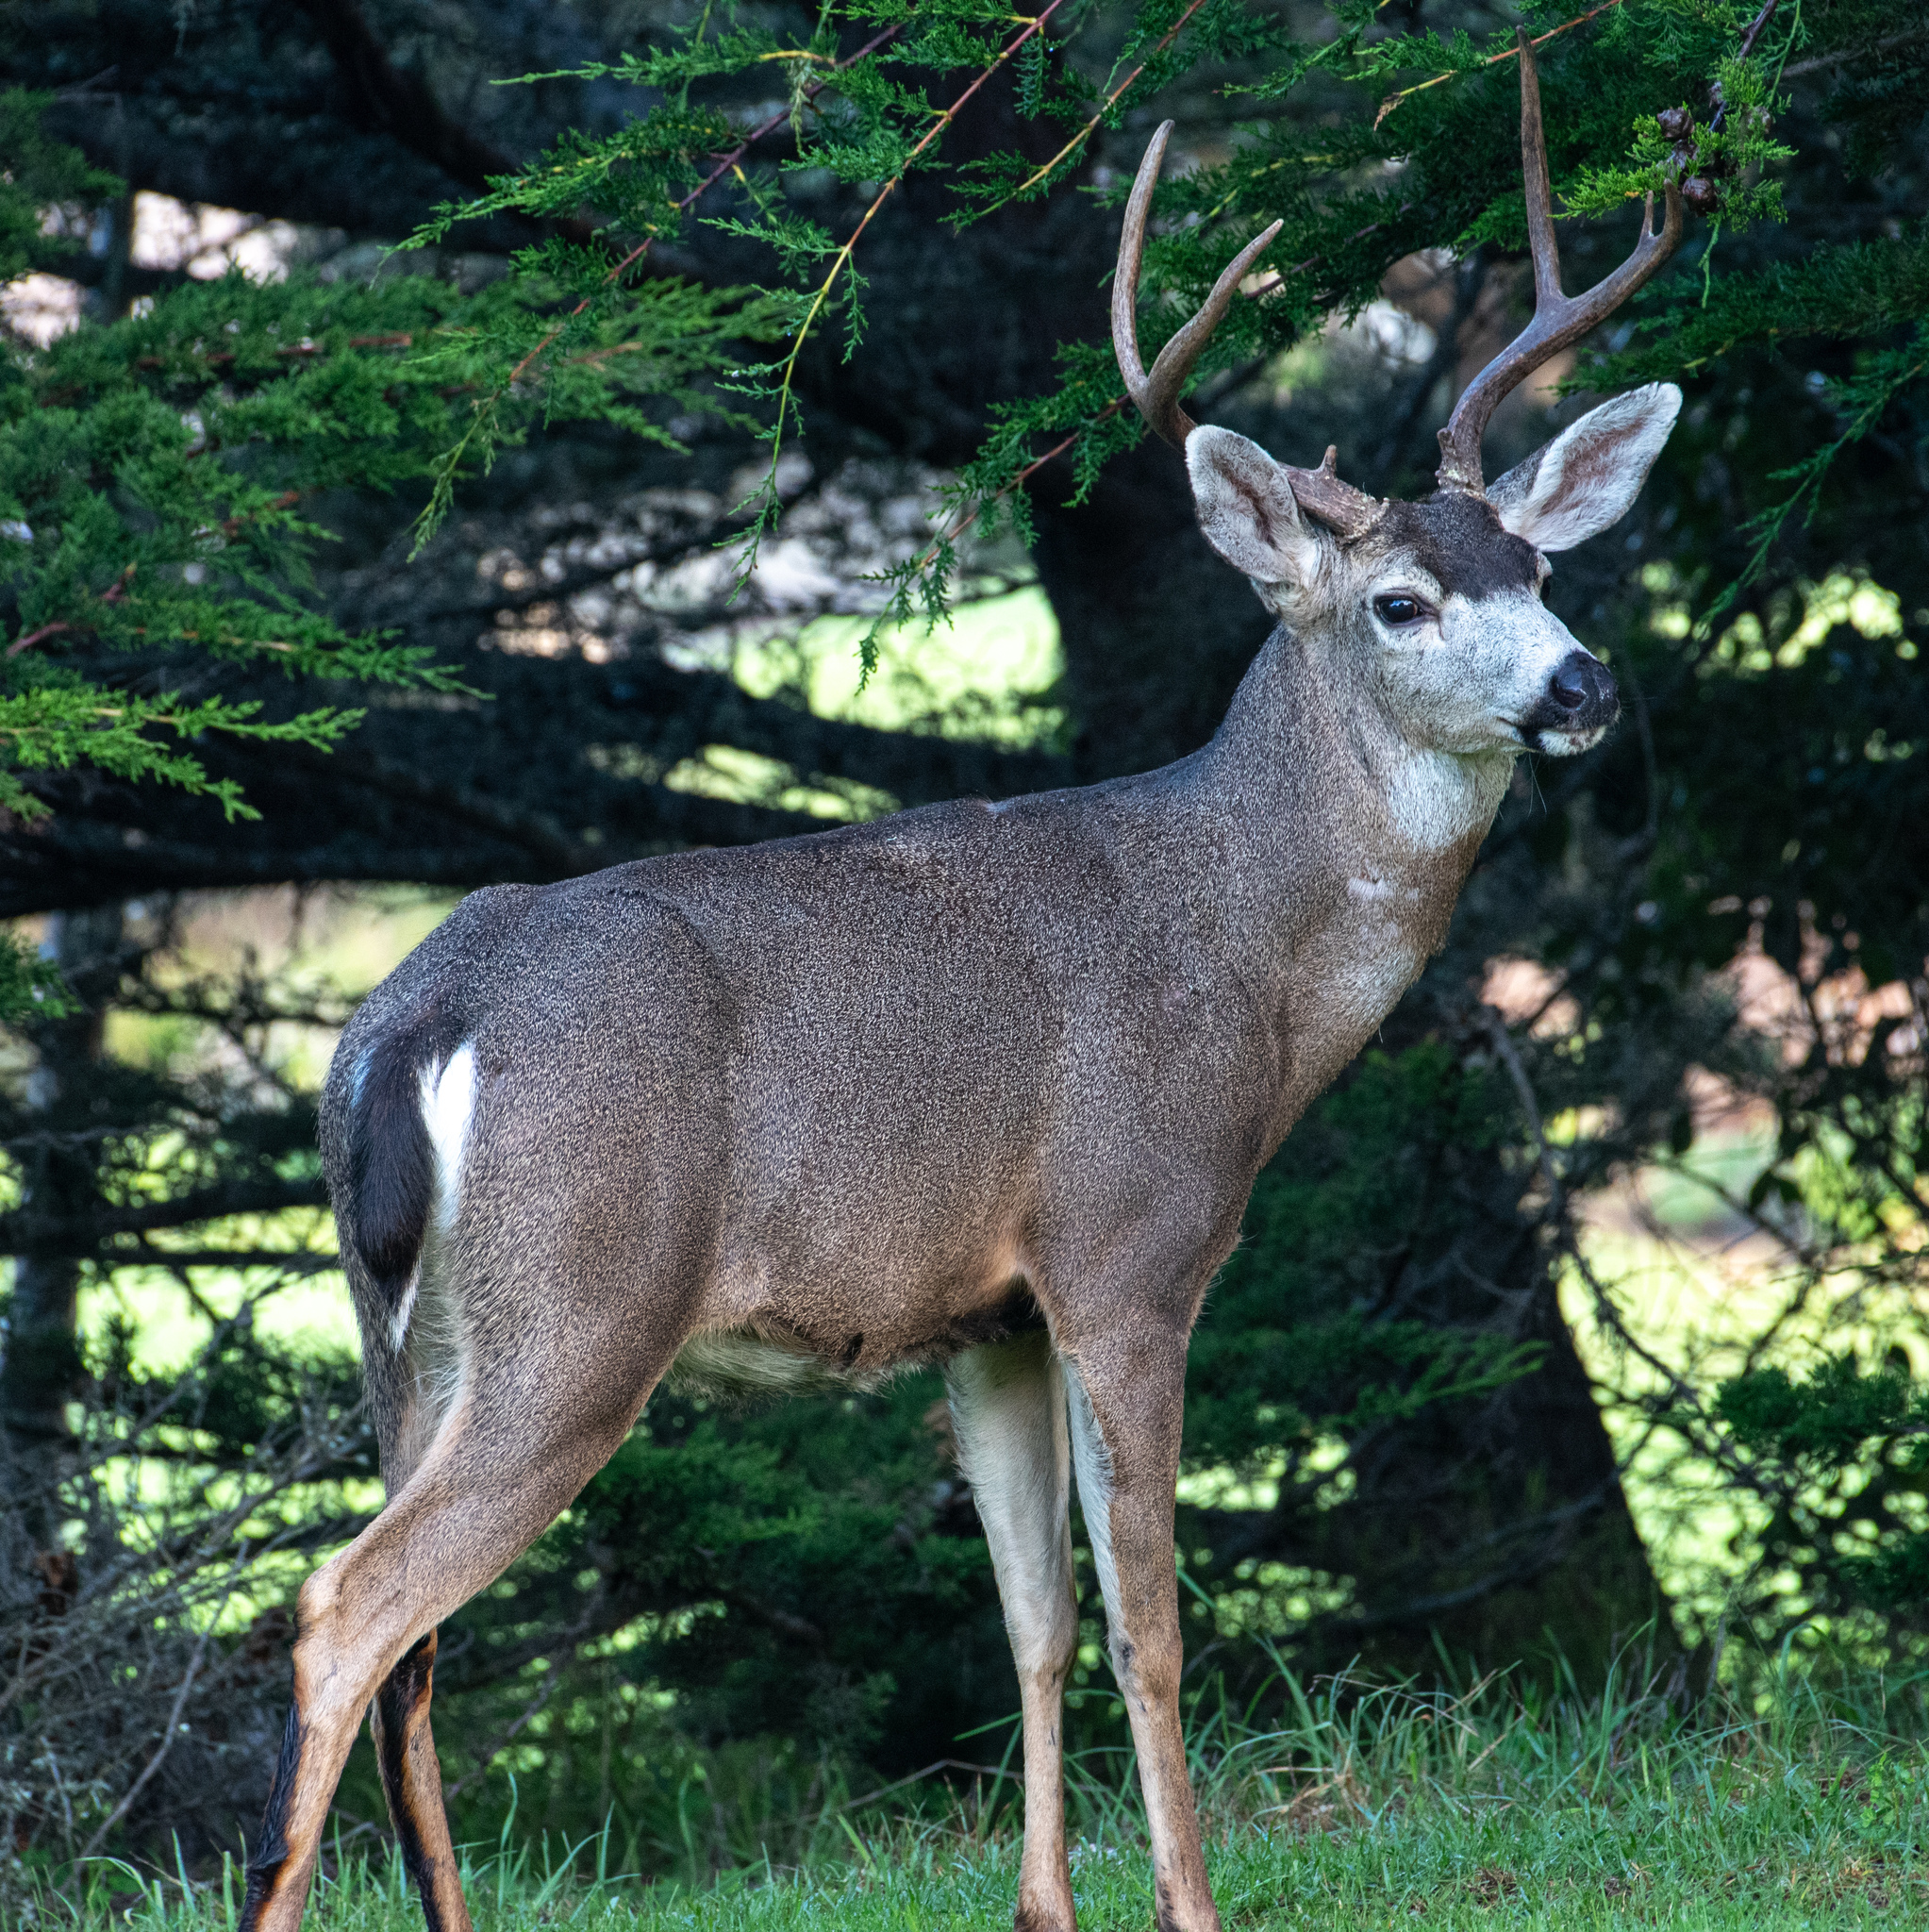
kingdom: Animalia
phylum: Chordata
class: Mammalia
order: Artiodactyla
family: Cervidae
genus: Odocoileus
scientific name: Odocoileus hemionus
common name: Mule deer
